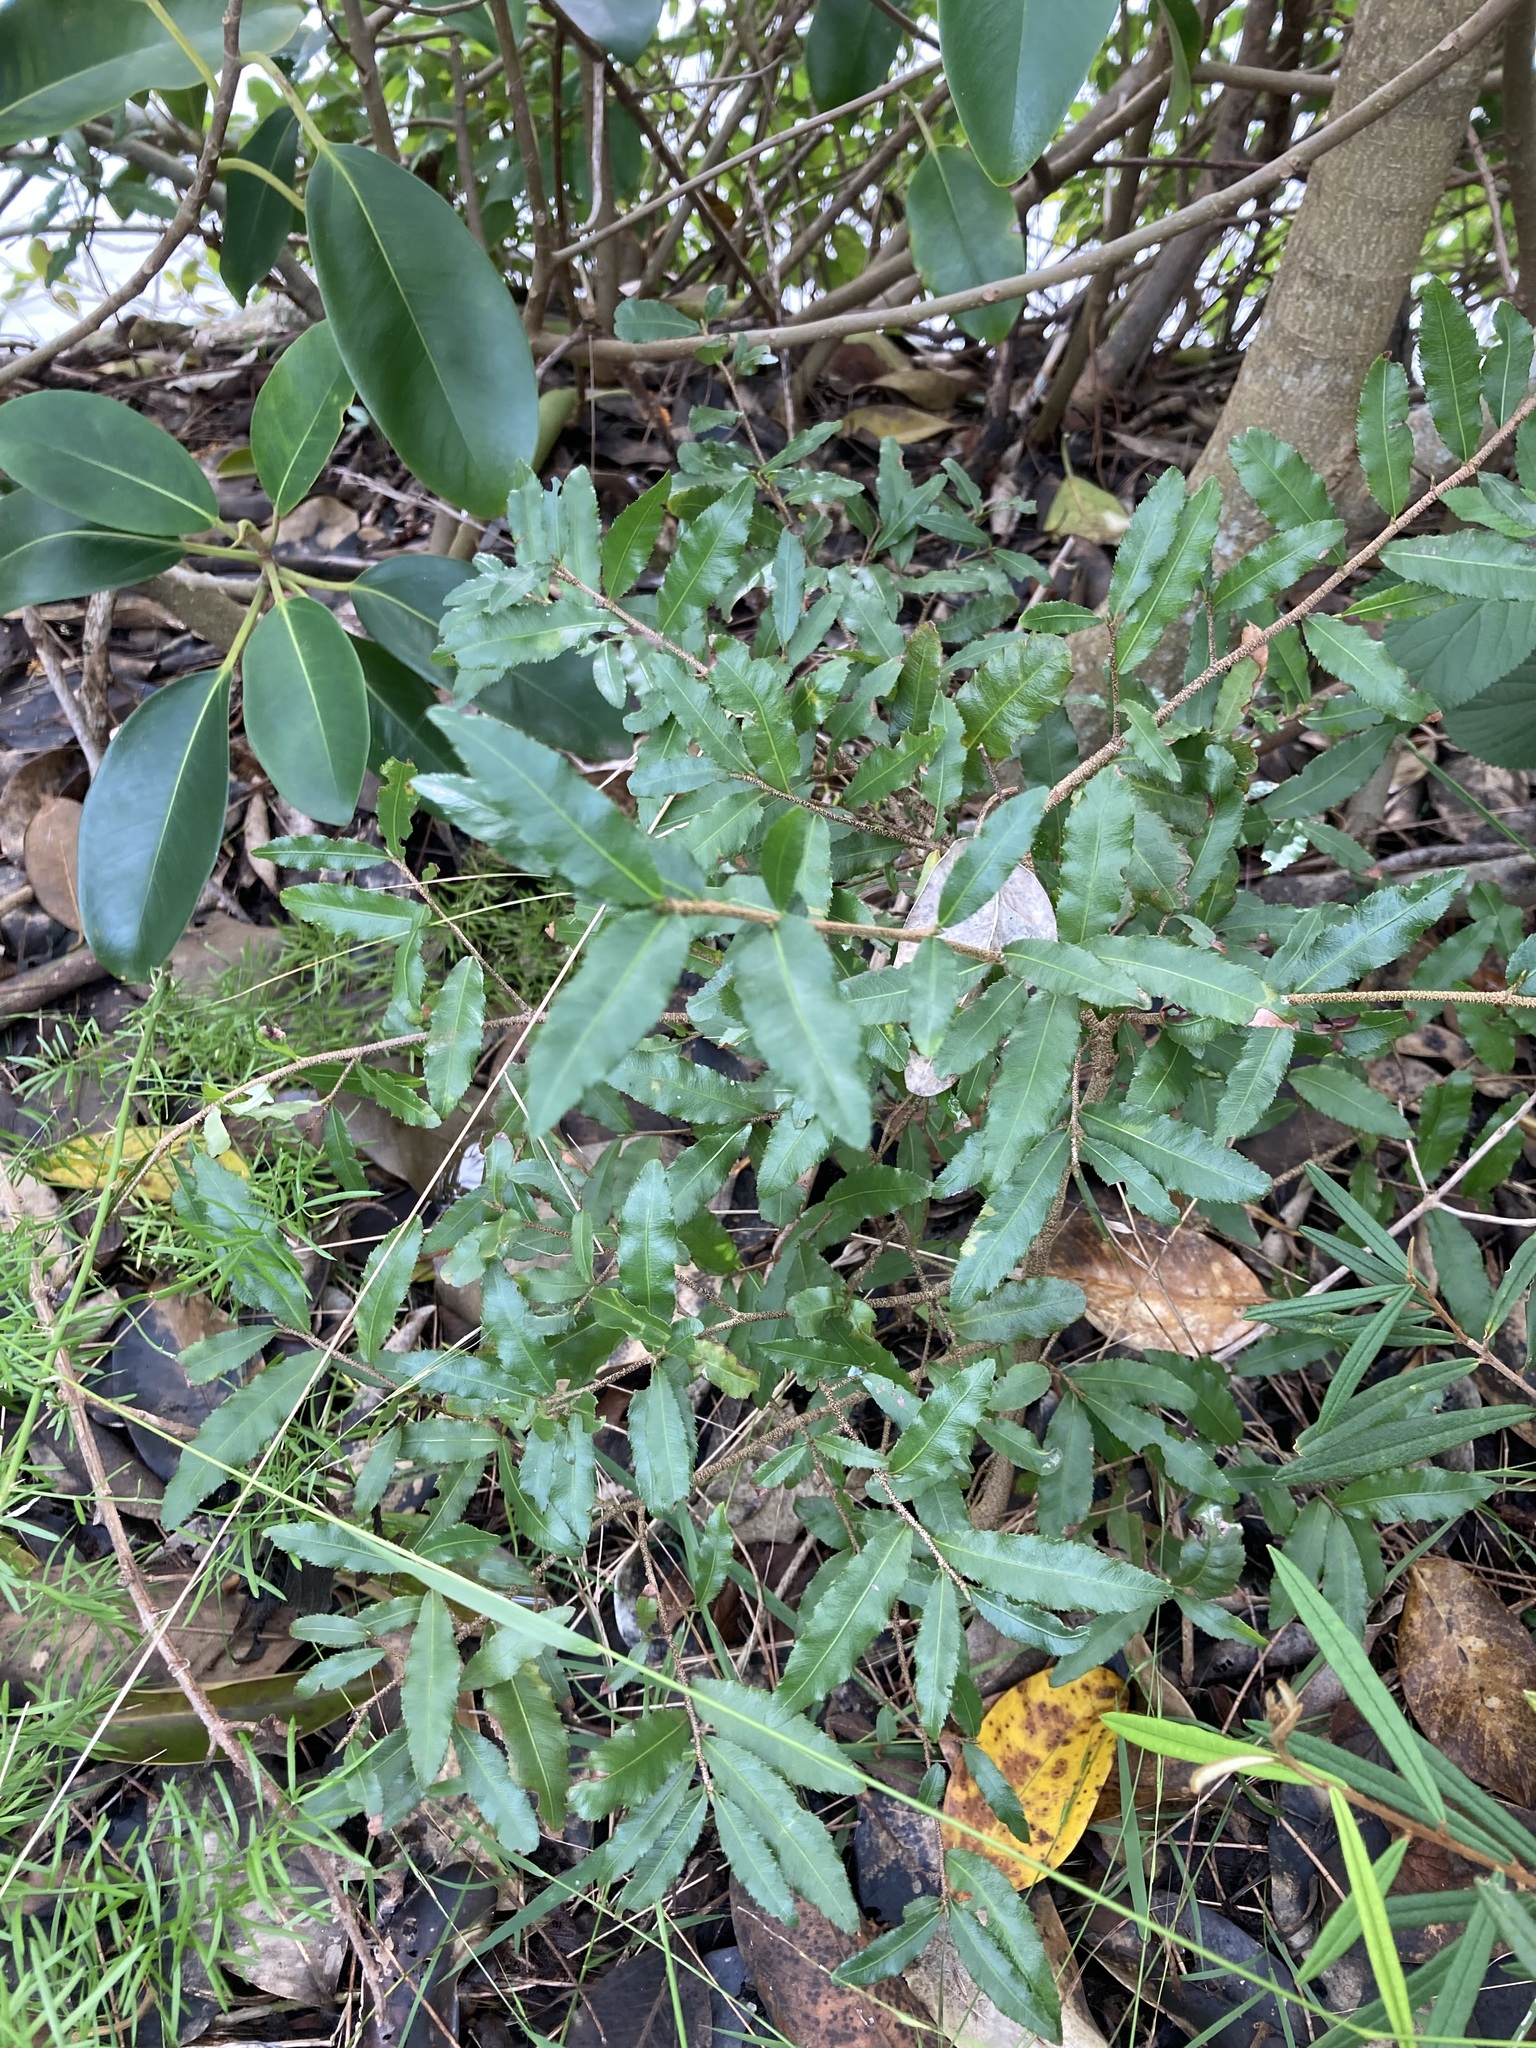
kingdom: Plantae
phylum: Tracheophyta
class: Magnoliopsida
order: Malpighiales
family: Ochnaceae
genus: Ochna
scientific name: Ochna serrulata
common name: Mickey mouse plant
